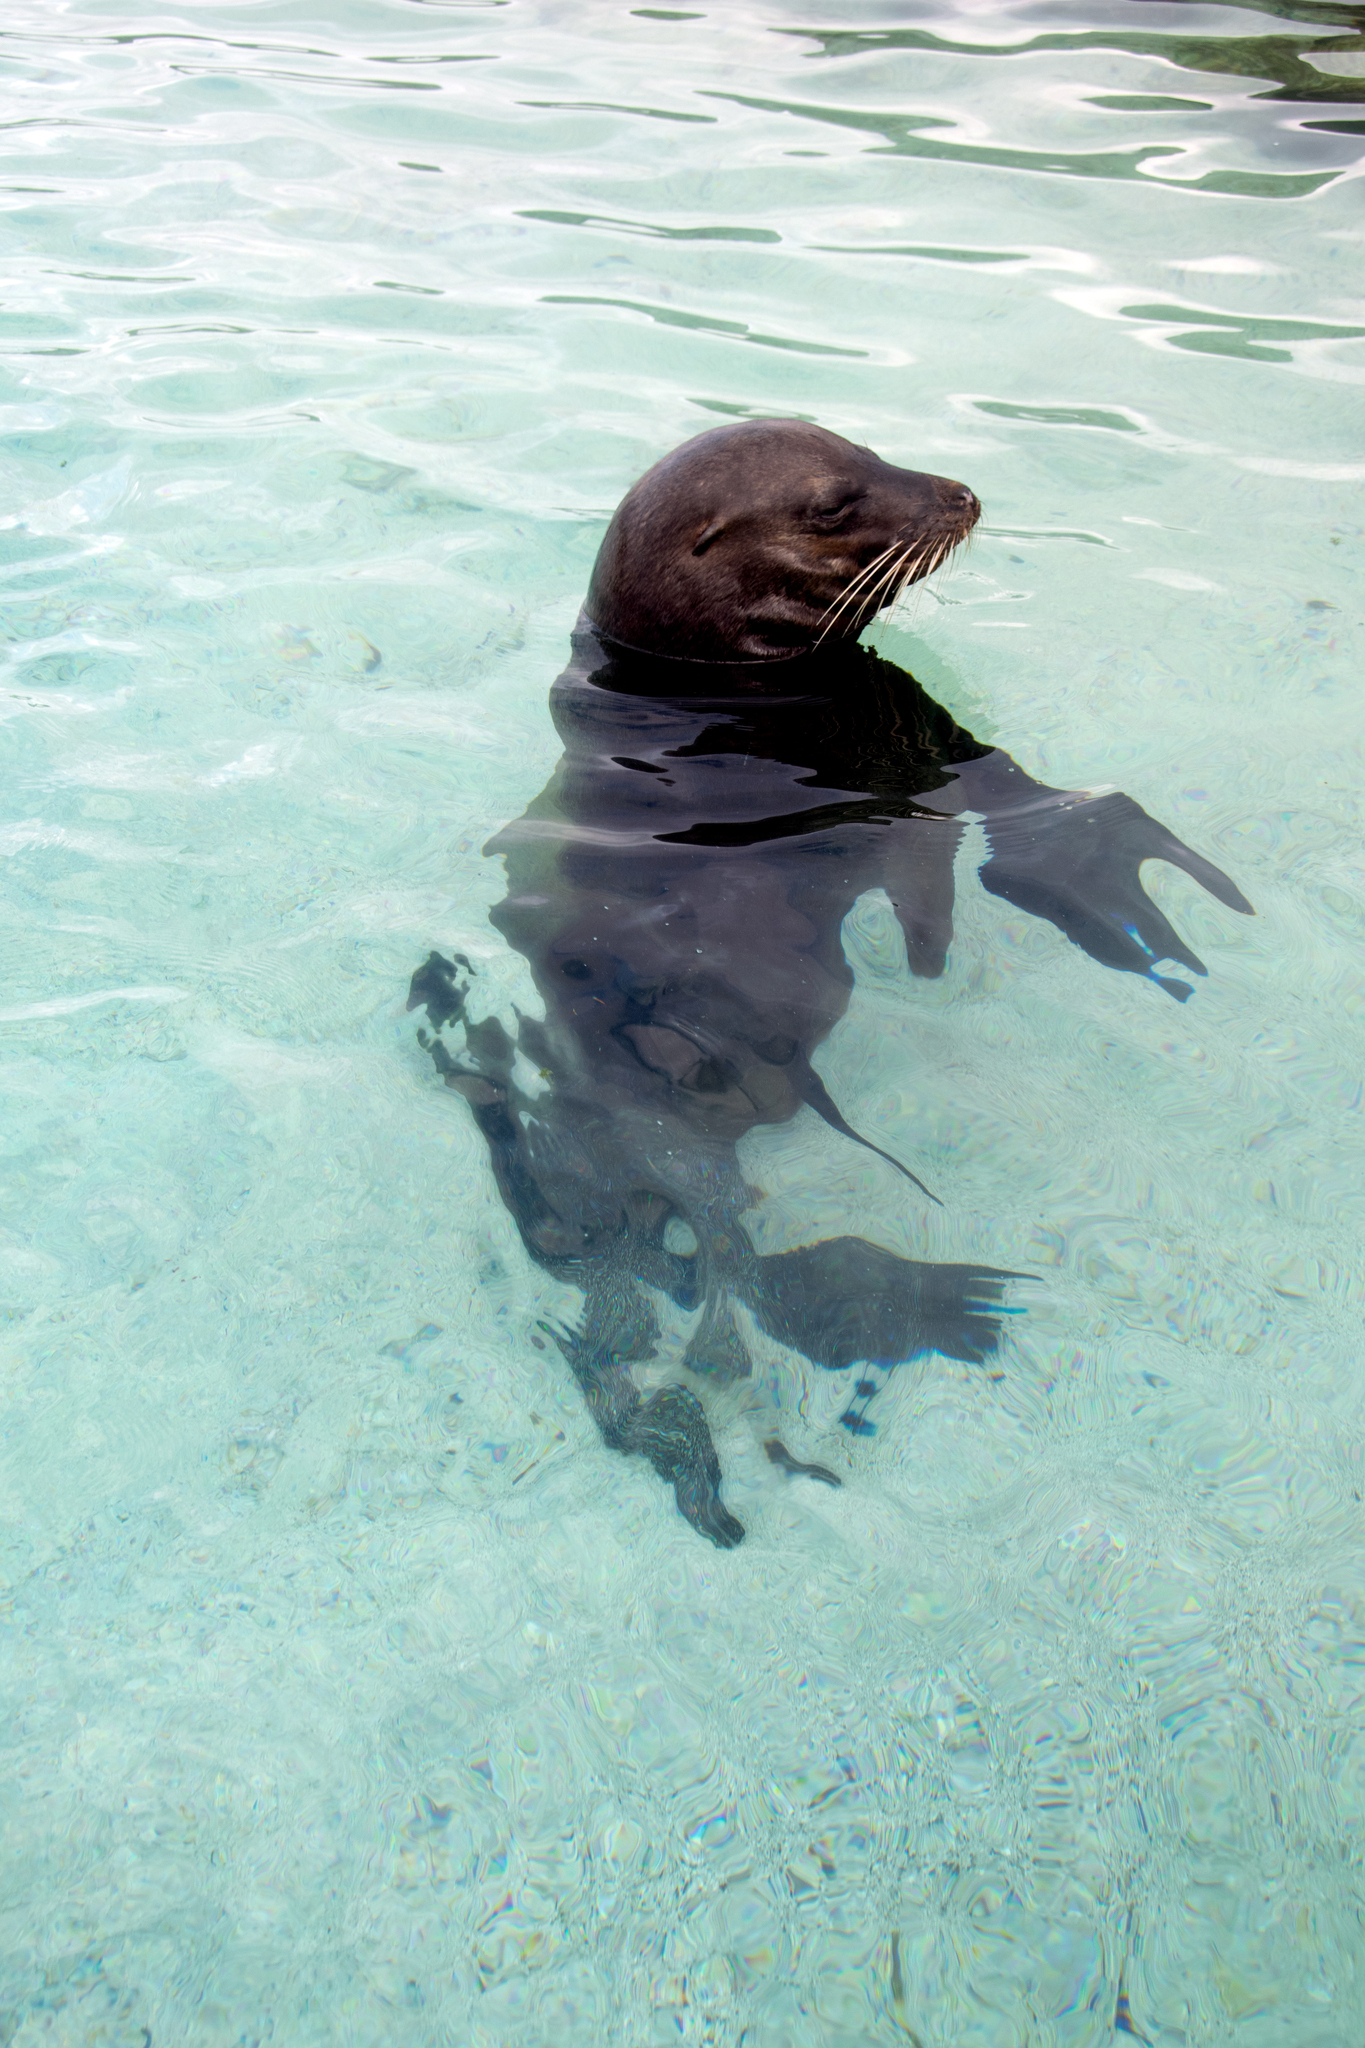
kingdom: Animalia
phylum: Chordata
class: Mammalia
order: Carnivora
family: Otariidae
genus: Zalophus
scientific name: Zalophus wollebaeki
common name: Galapagos sea lion
